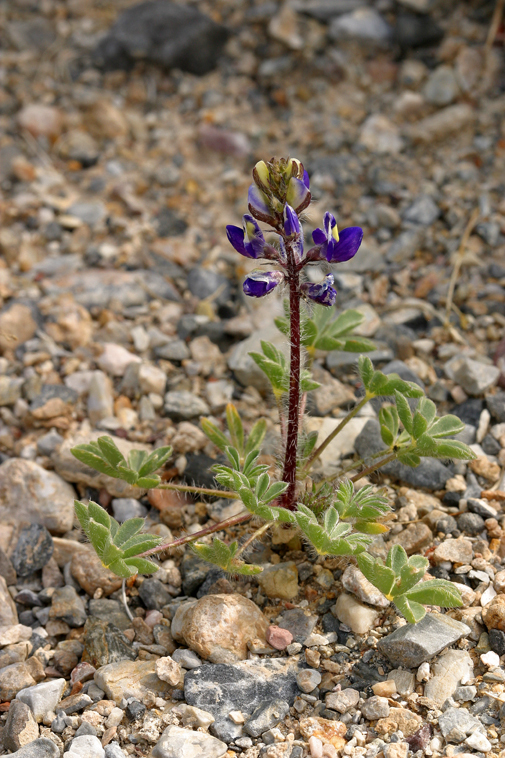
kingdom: Plantae
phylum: Tracheophyta
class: Magnoliopsida
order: Fabales
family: Fabaceae
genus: Lupinus
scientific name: Lupinus flavoculatus
